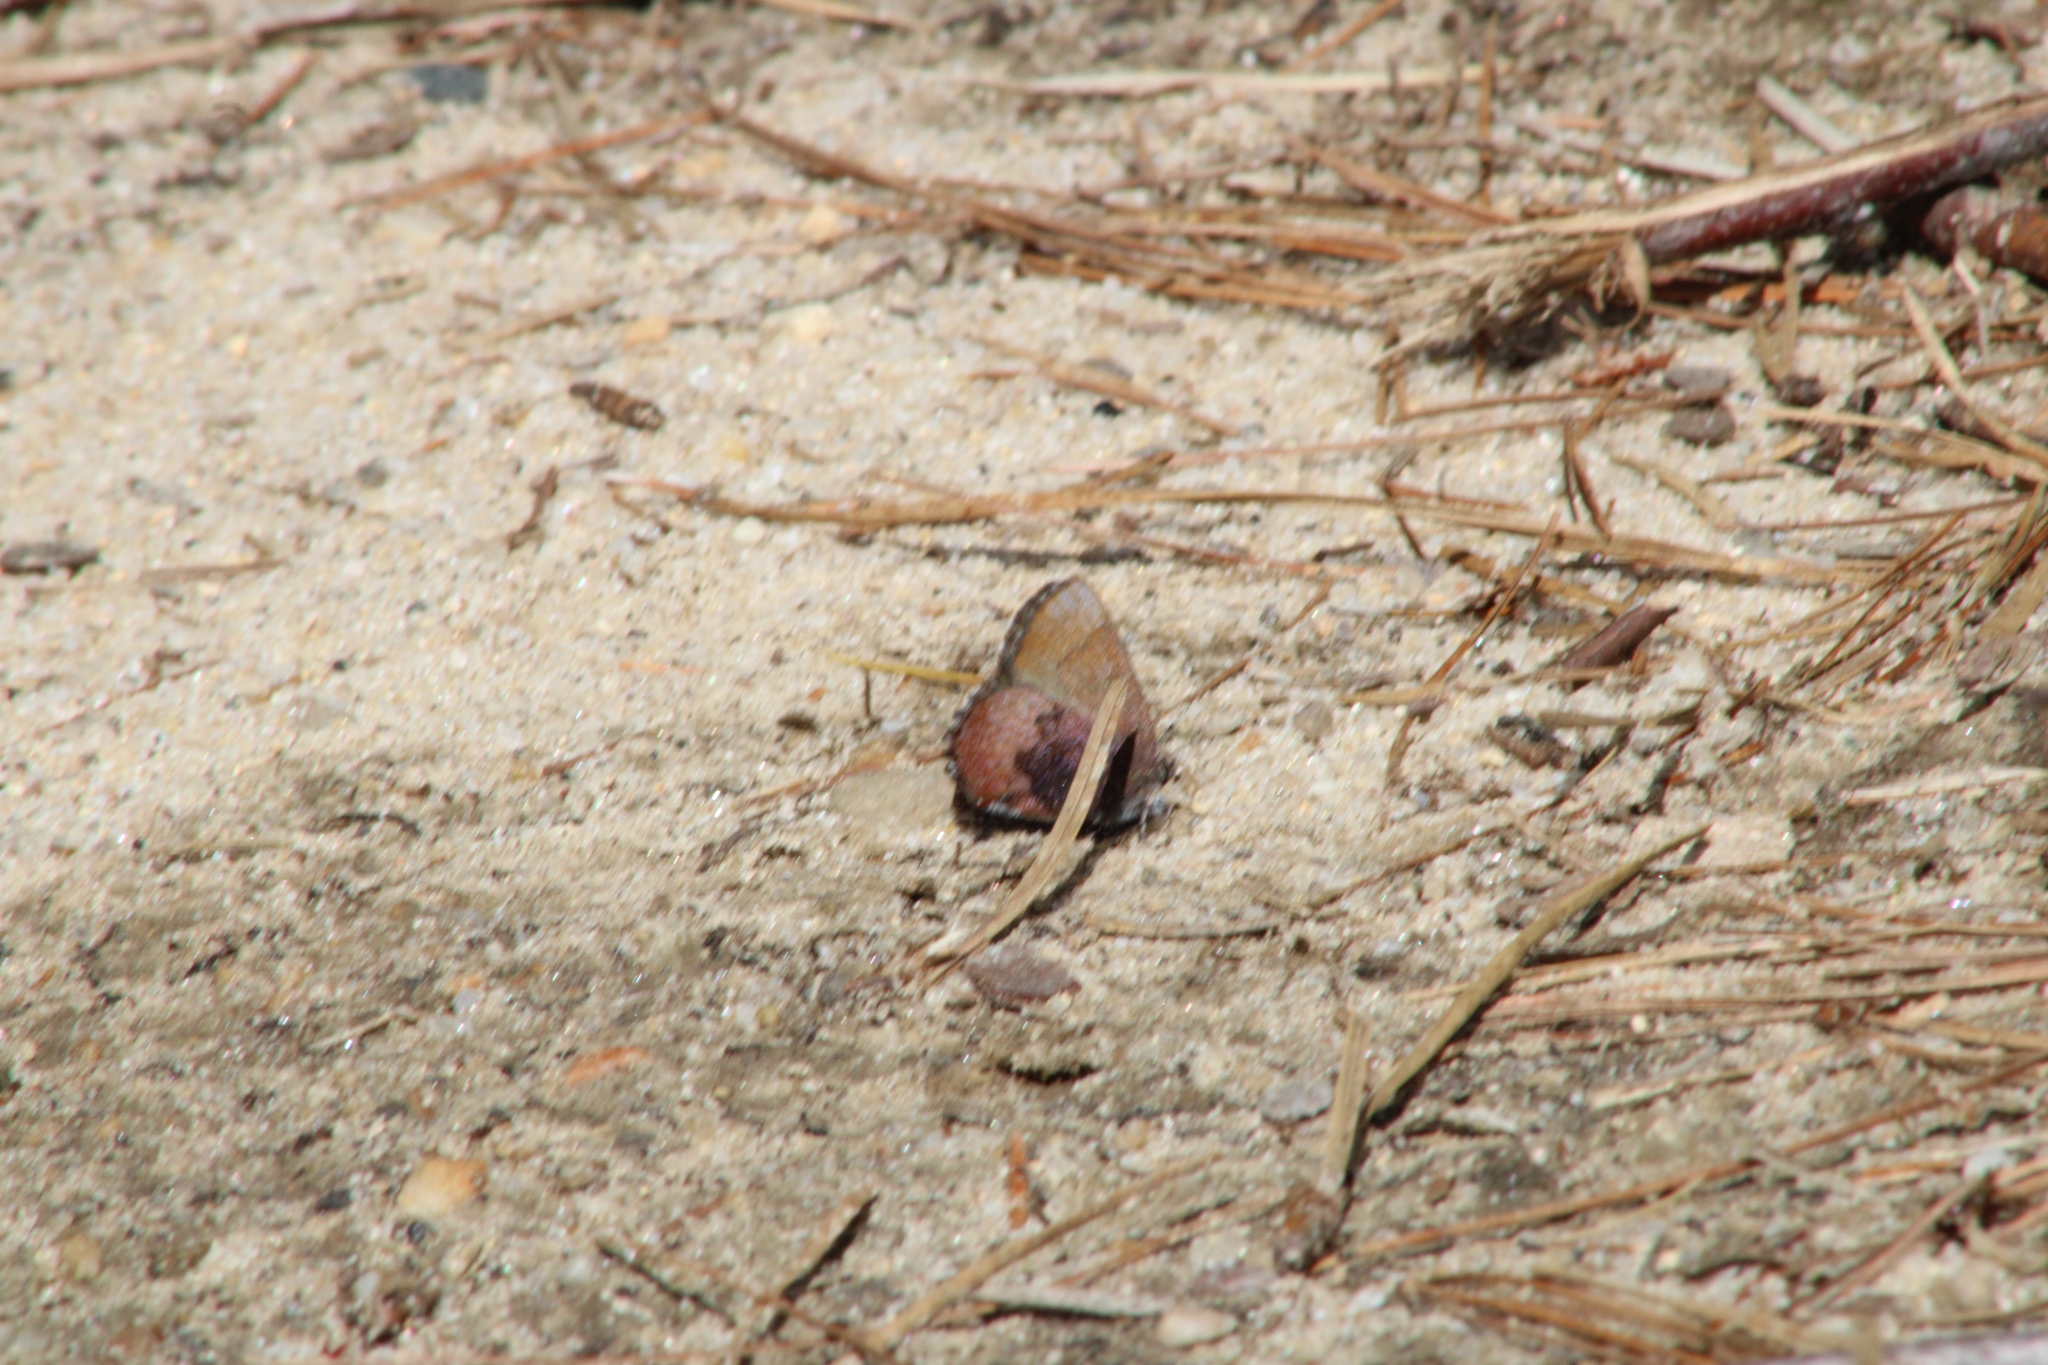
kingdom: Animalia
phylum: Arthropoda
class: Insecta
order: Lepidoptera
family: Lycaenidae
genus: Incisalia
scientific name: Incisalia irioides
